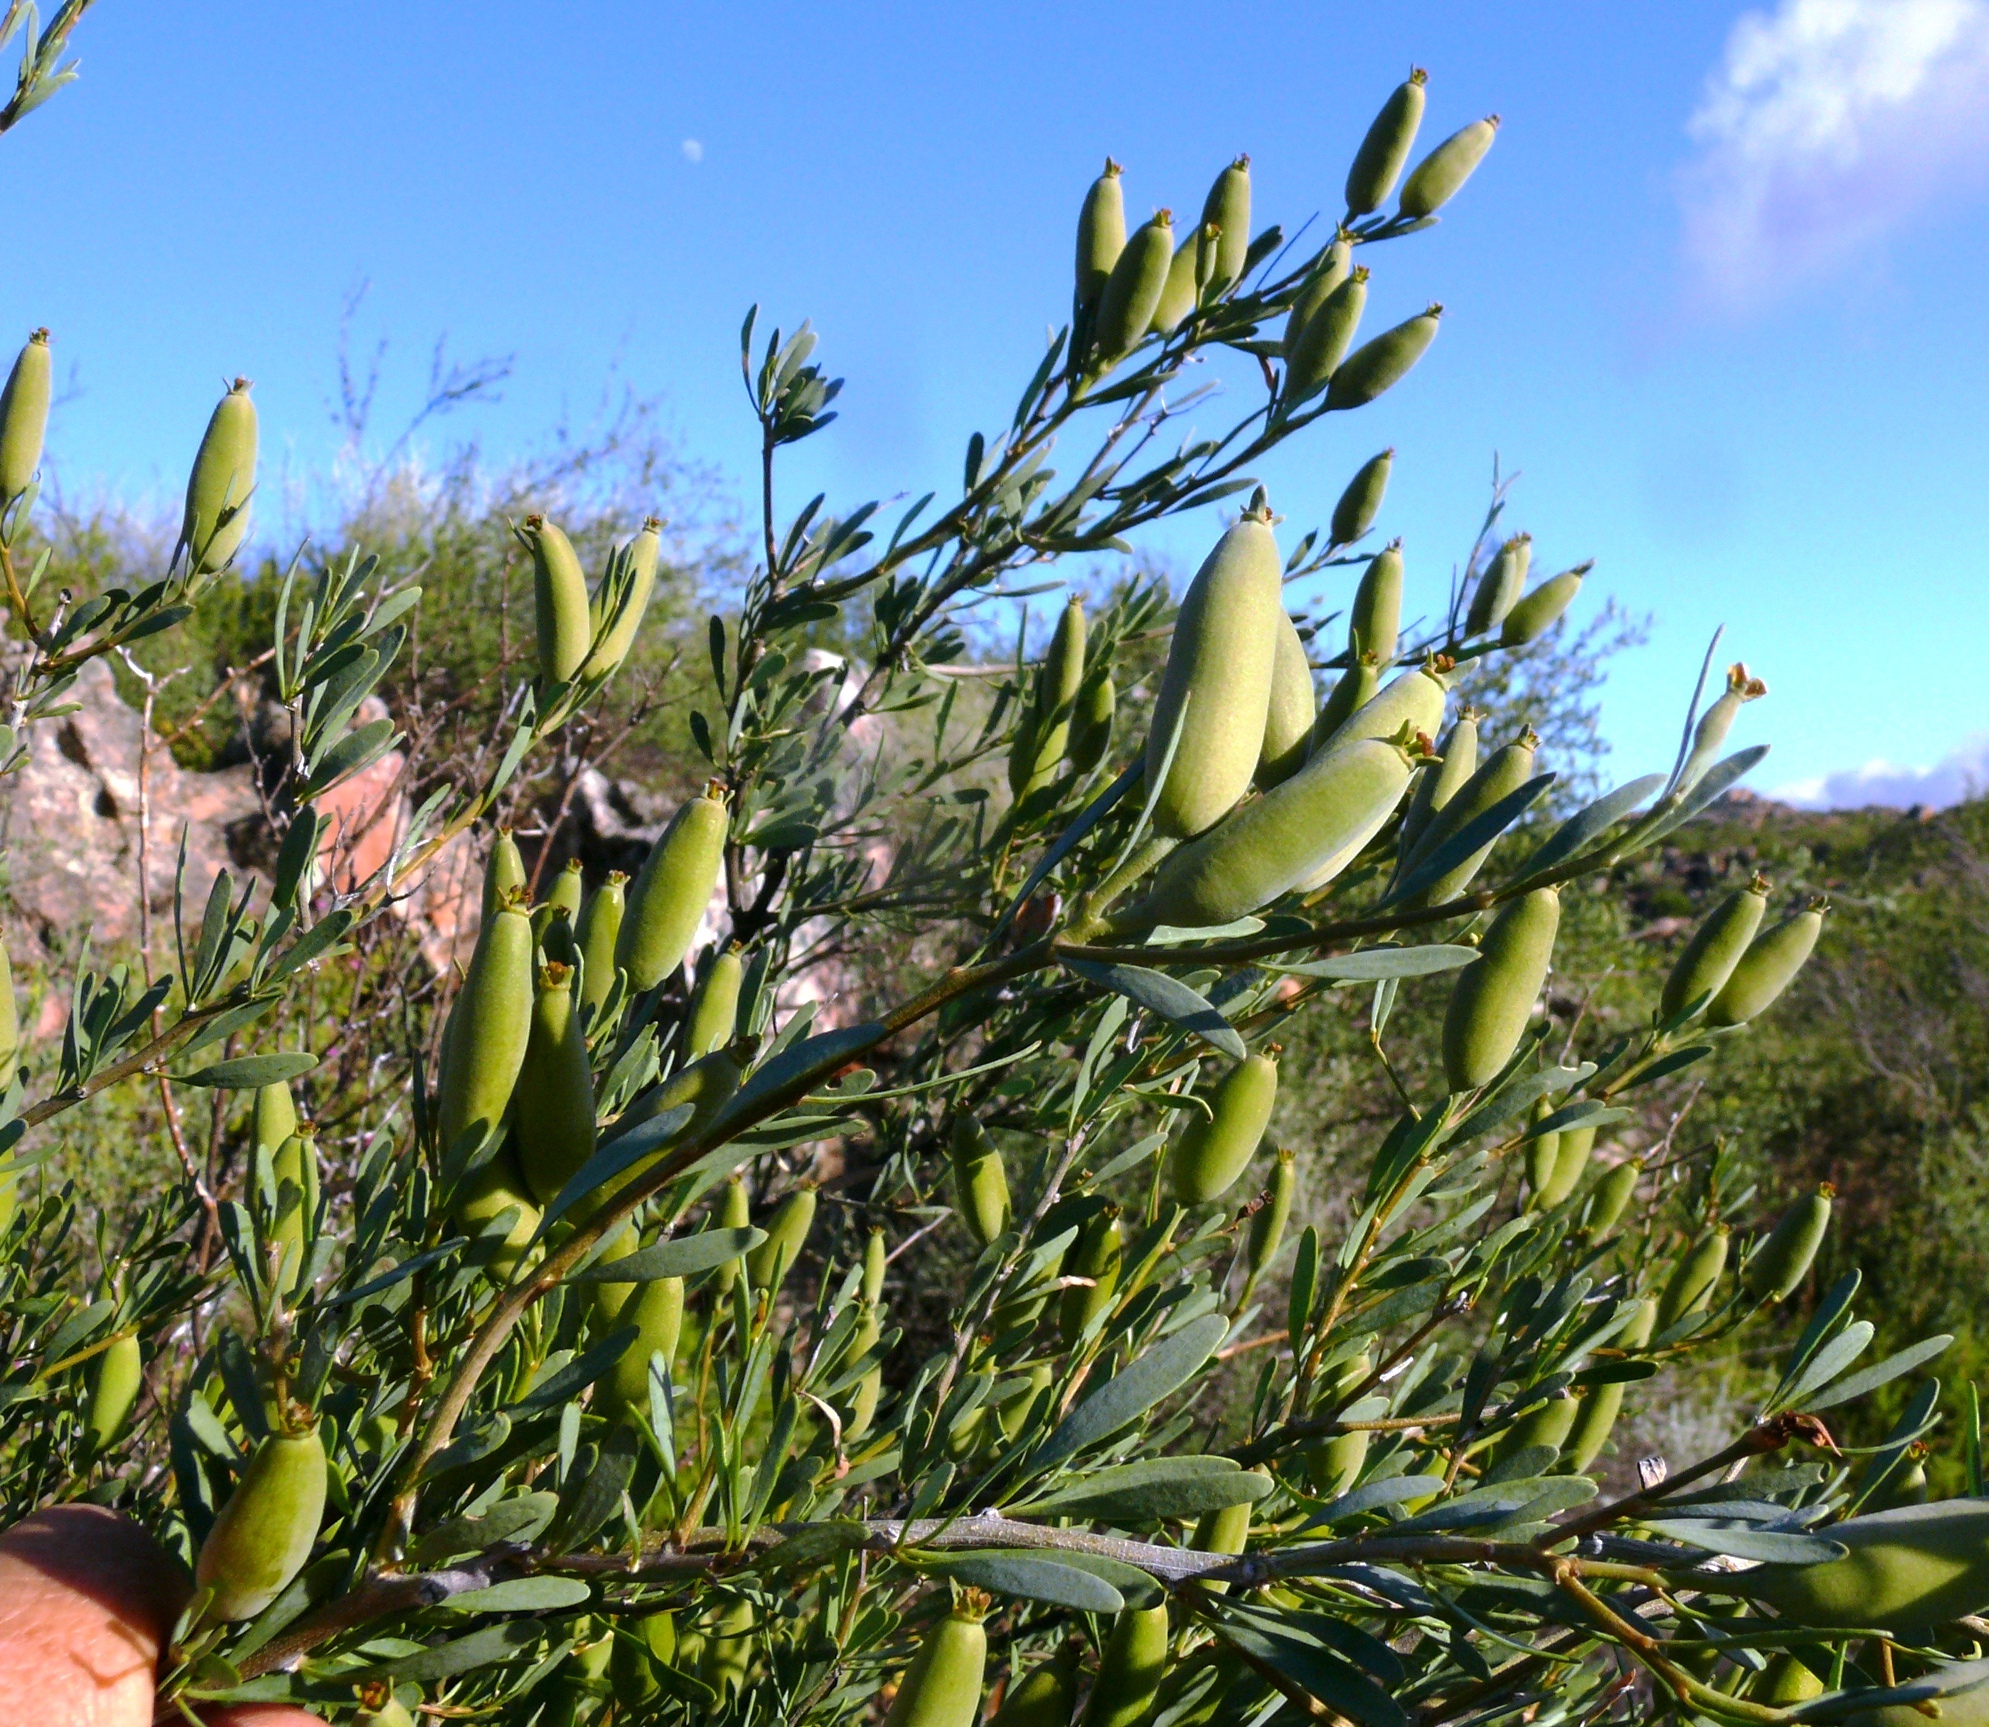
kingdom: Plantae
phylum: Tracheophyta
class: Magnoliopsida
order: Solanales
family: Montiniaceae
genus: Montinia
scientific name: Montinia caryophyllacea
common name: Wild clove-bush
